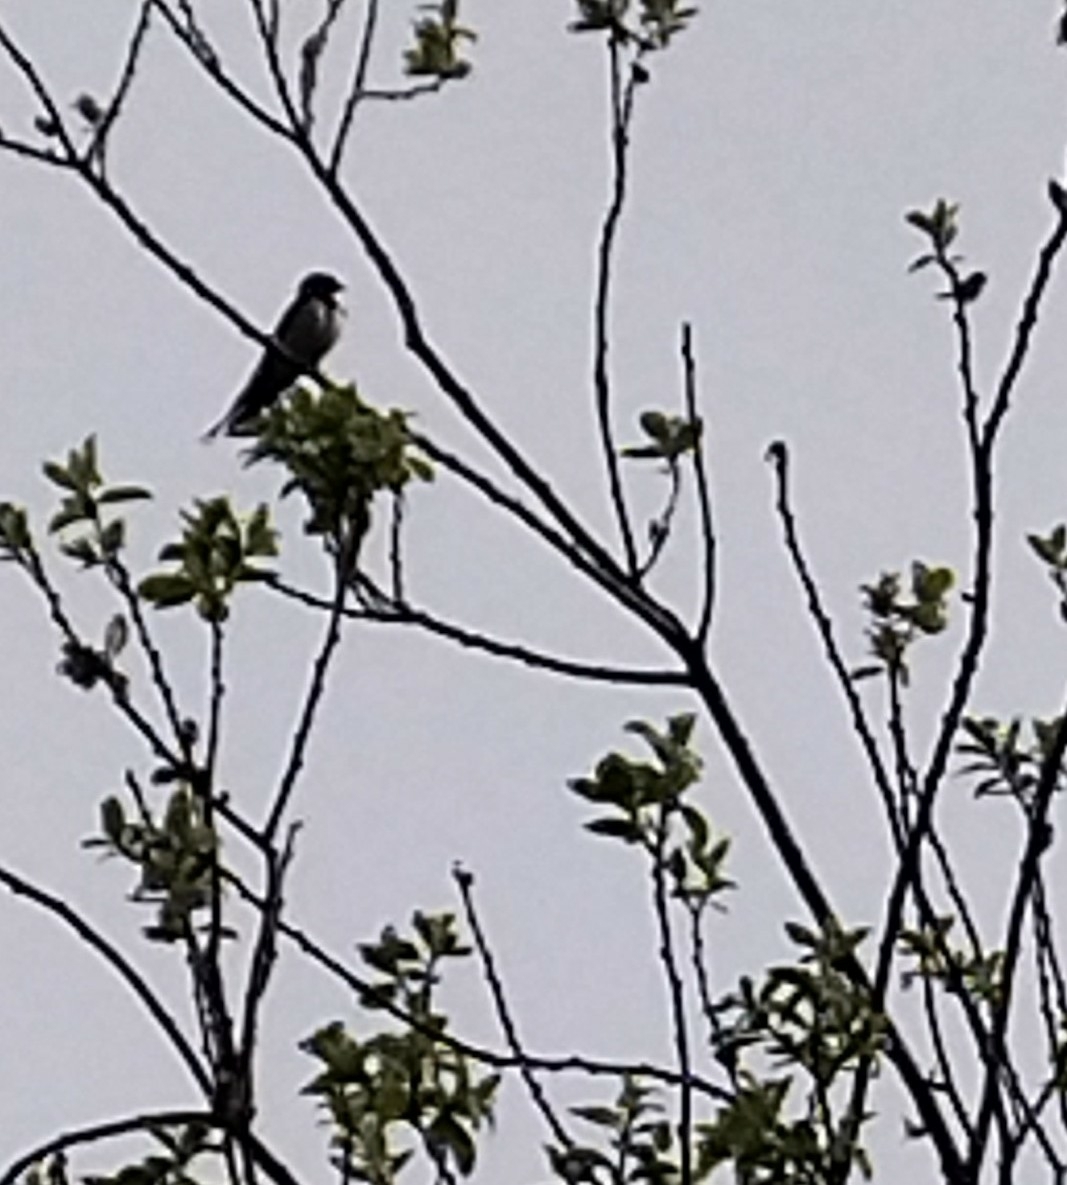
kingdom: Animalia
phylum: Chordata
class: Aves
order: Passeriformes
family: Hirundinidae
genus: Hirundo
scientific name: Hirundo rustica
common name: Barn swallow
